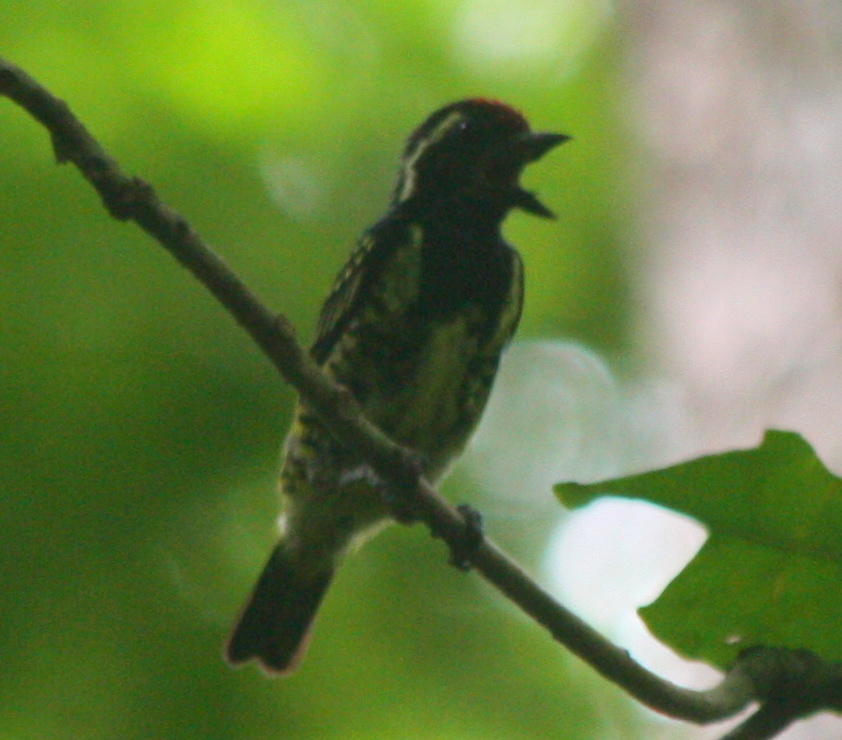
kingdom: Animalia
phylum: Chordata
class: Aves
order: Piciformes
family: Lybiidae
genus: Buccanodon
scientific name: Buccanodon duchaillui
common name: Yellow-spotted barbet
